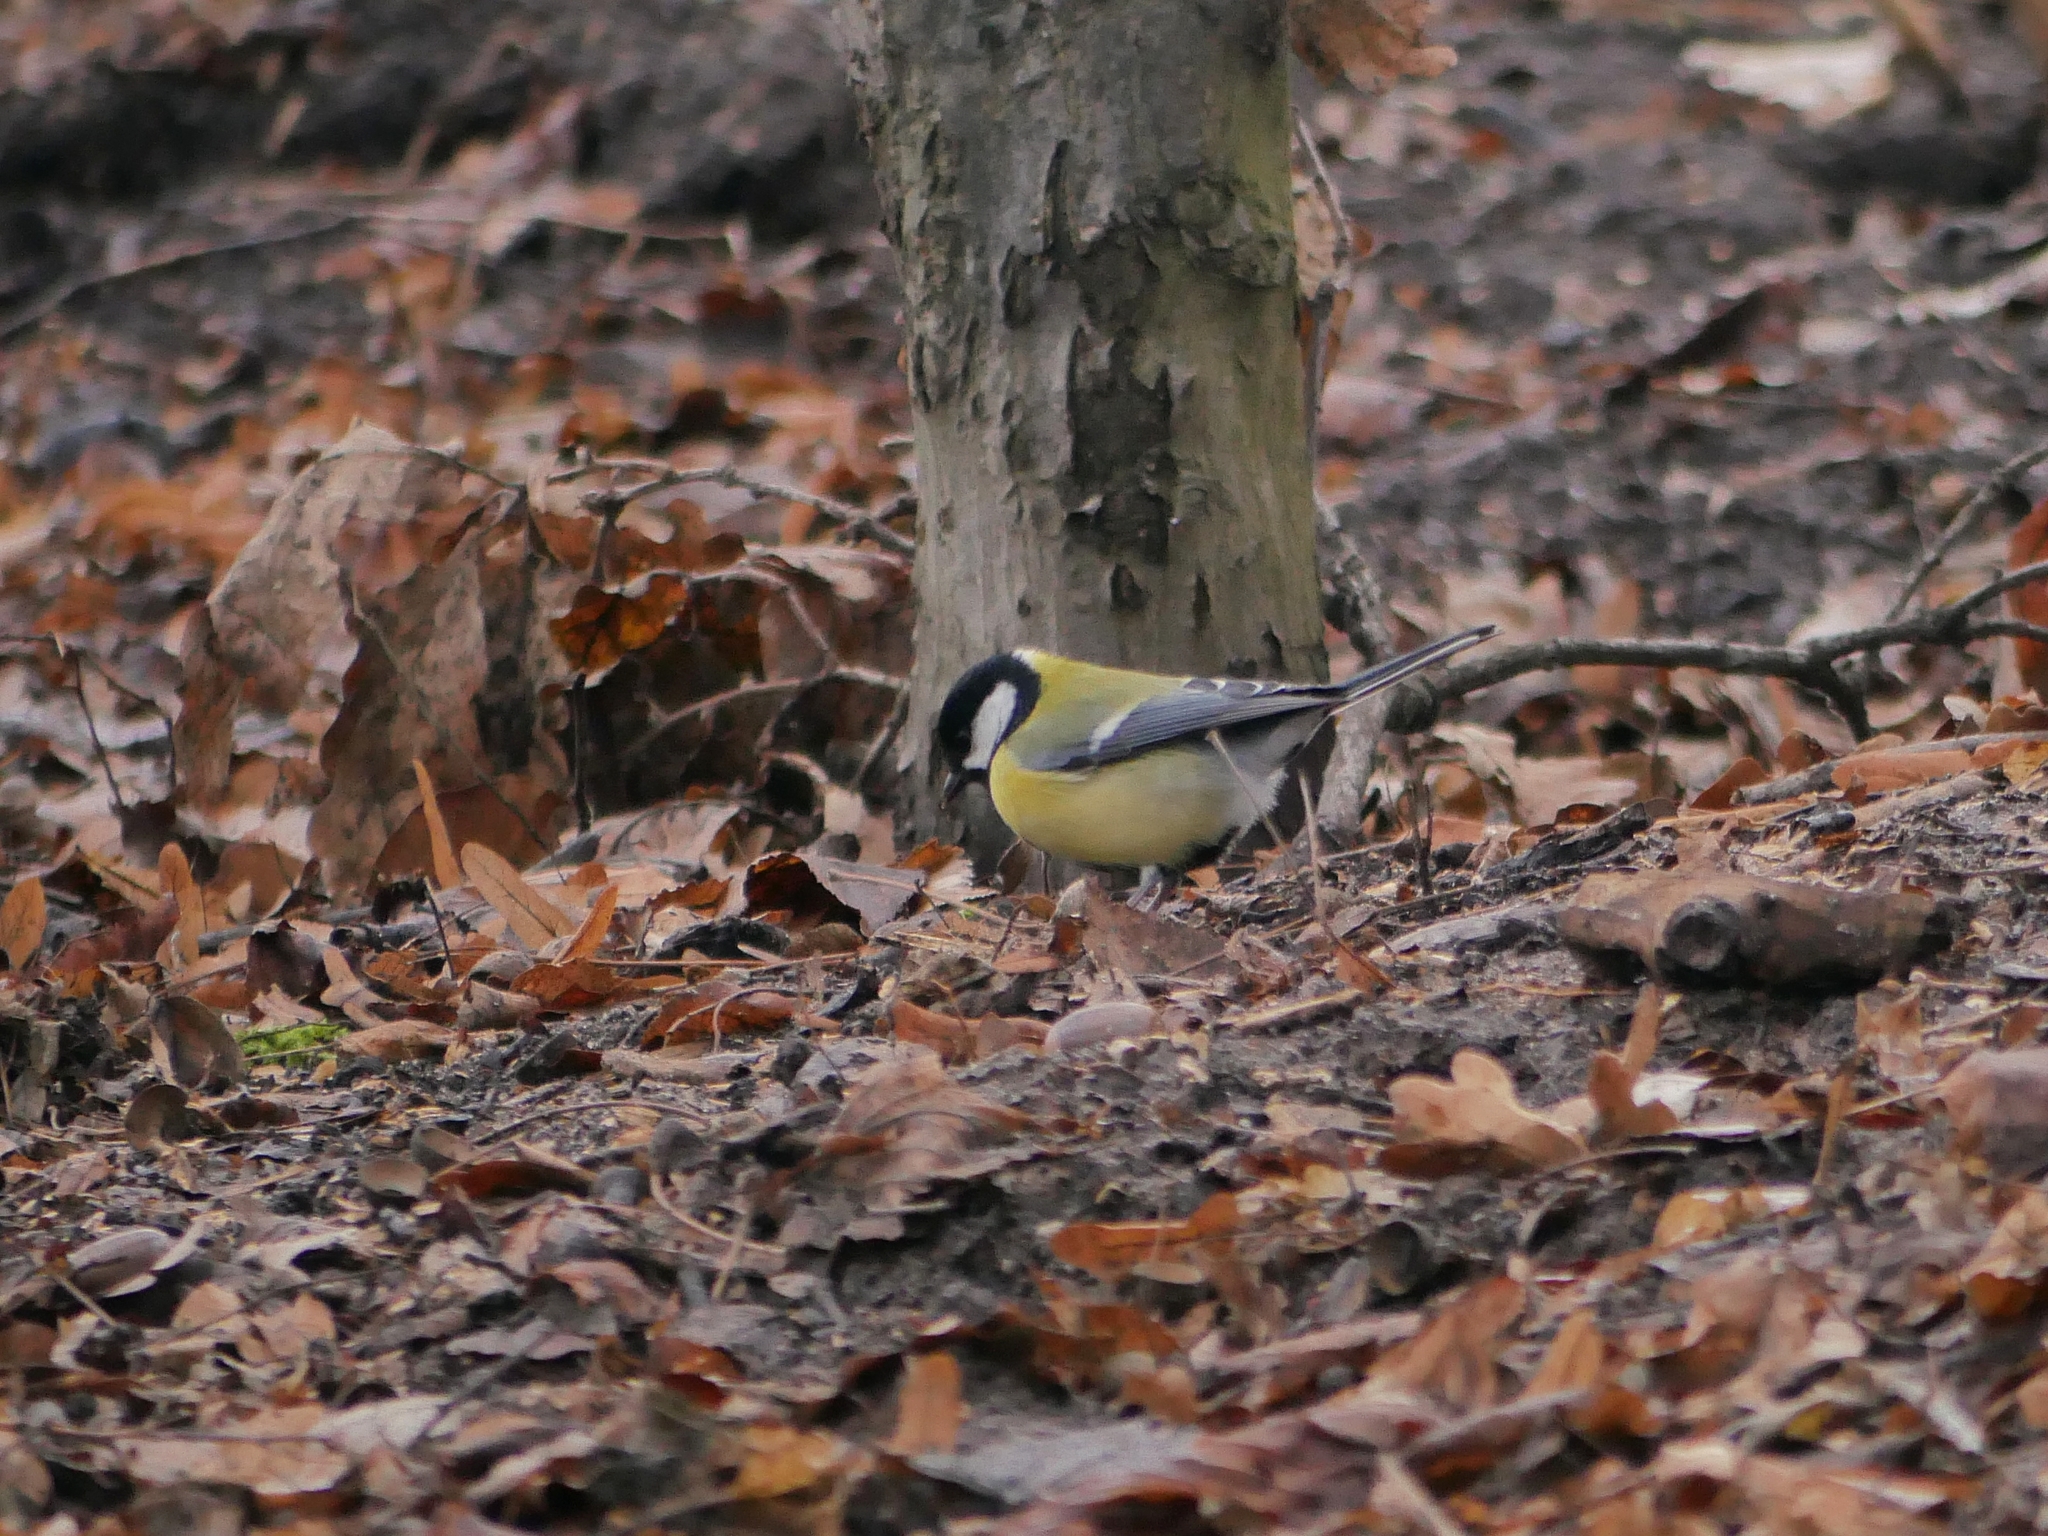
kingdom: Animalia
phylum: Chordata
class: Aves
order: Passeriformes
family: Paridae
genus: Parus
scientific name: Parus major
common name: Great tit
